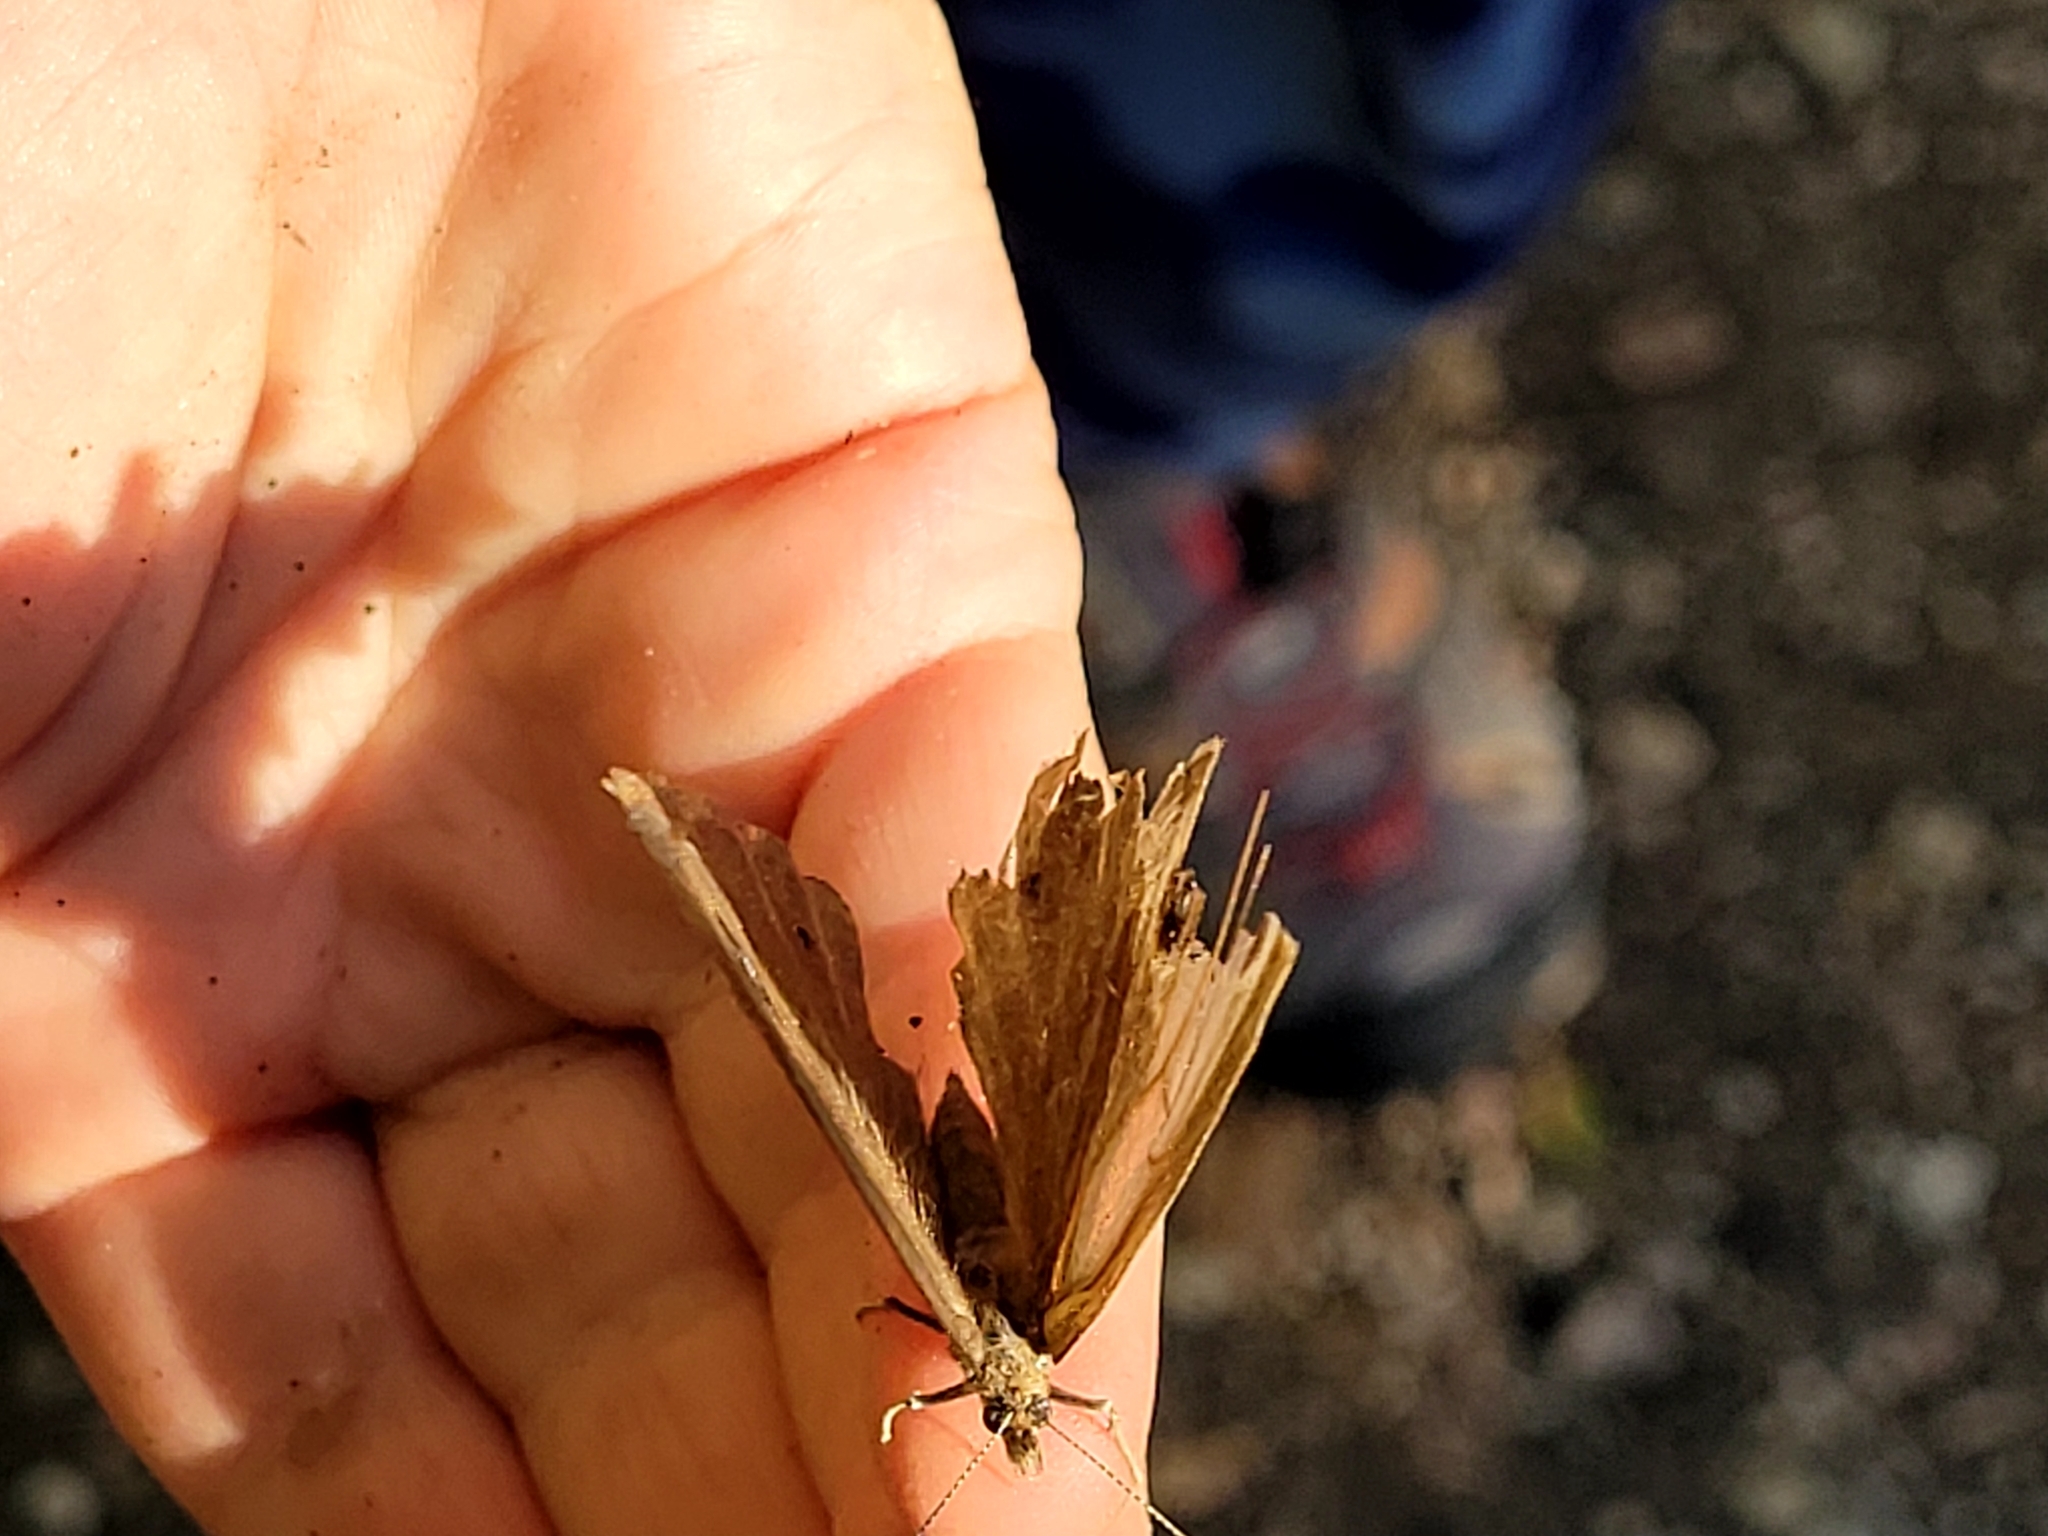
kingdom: Animalia
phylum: Arthropoda
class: Insecta
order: Lepidoptera
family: Nymphalidae
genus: Cercyonis
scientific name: Cercyonis pegala
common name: Common wood-nymph
